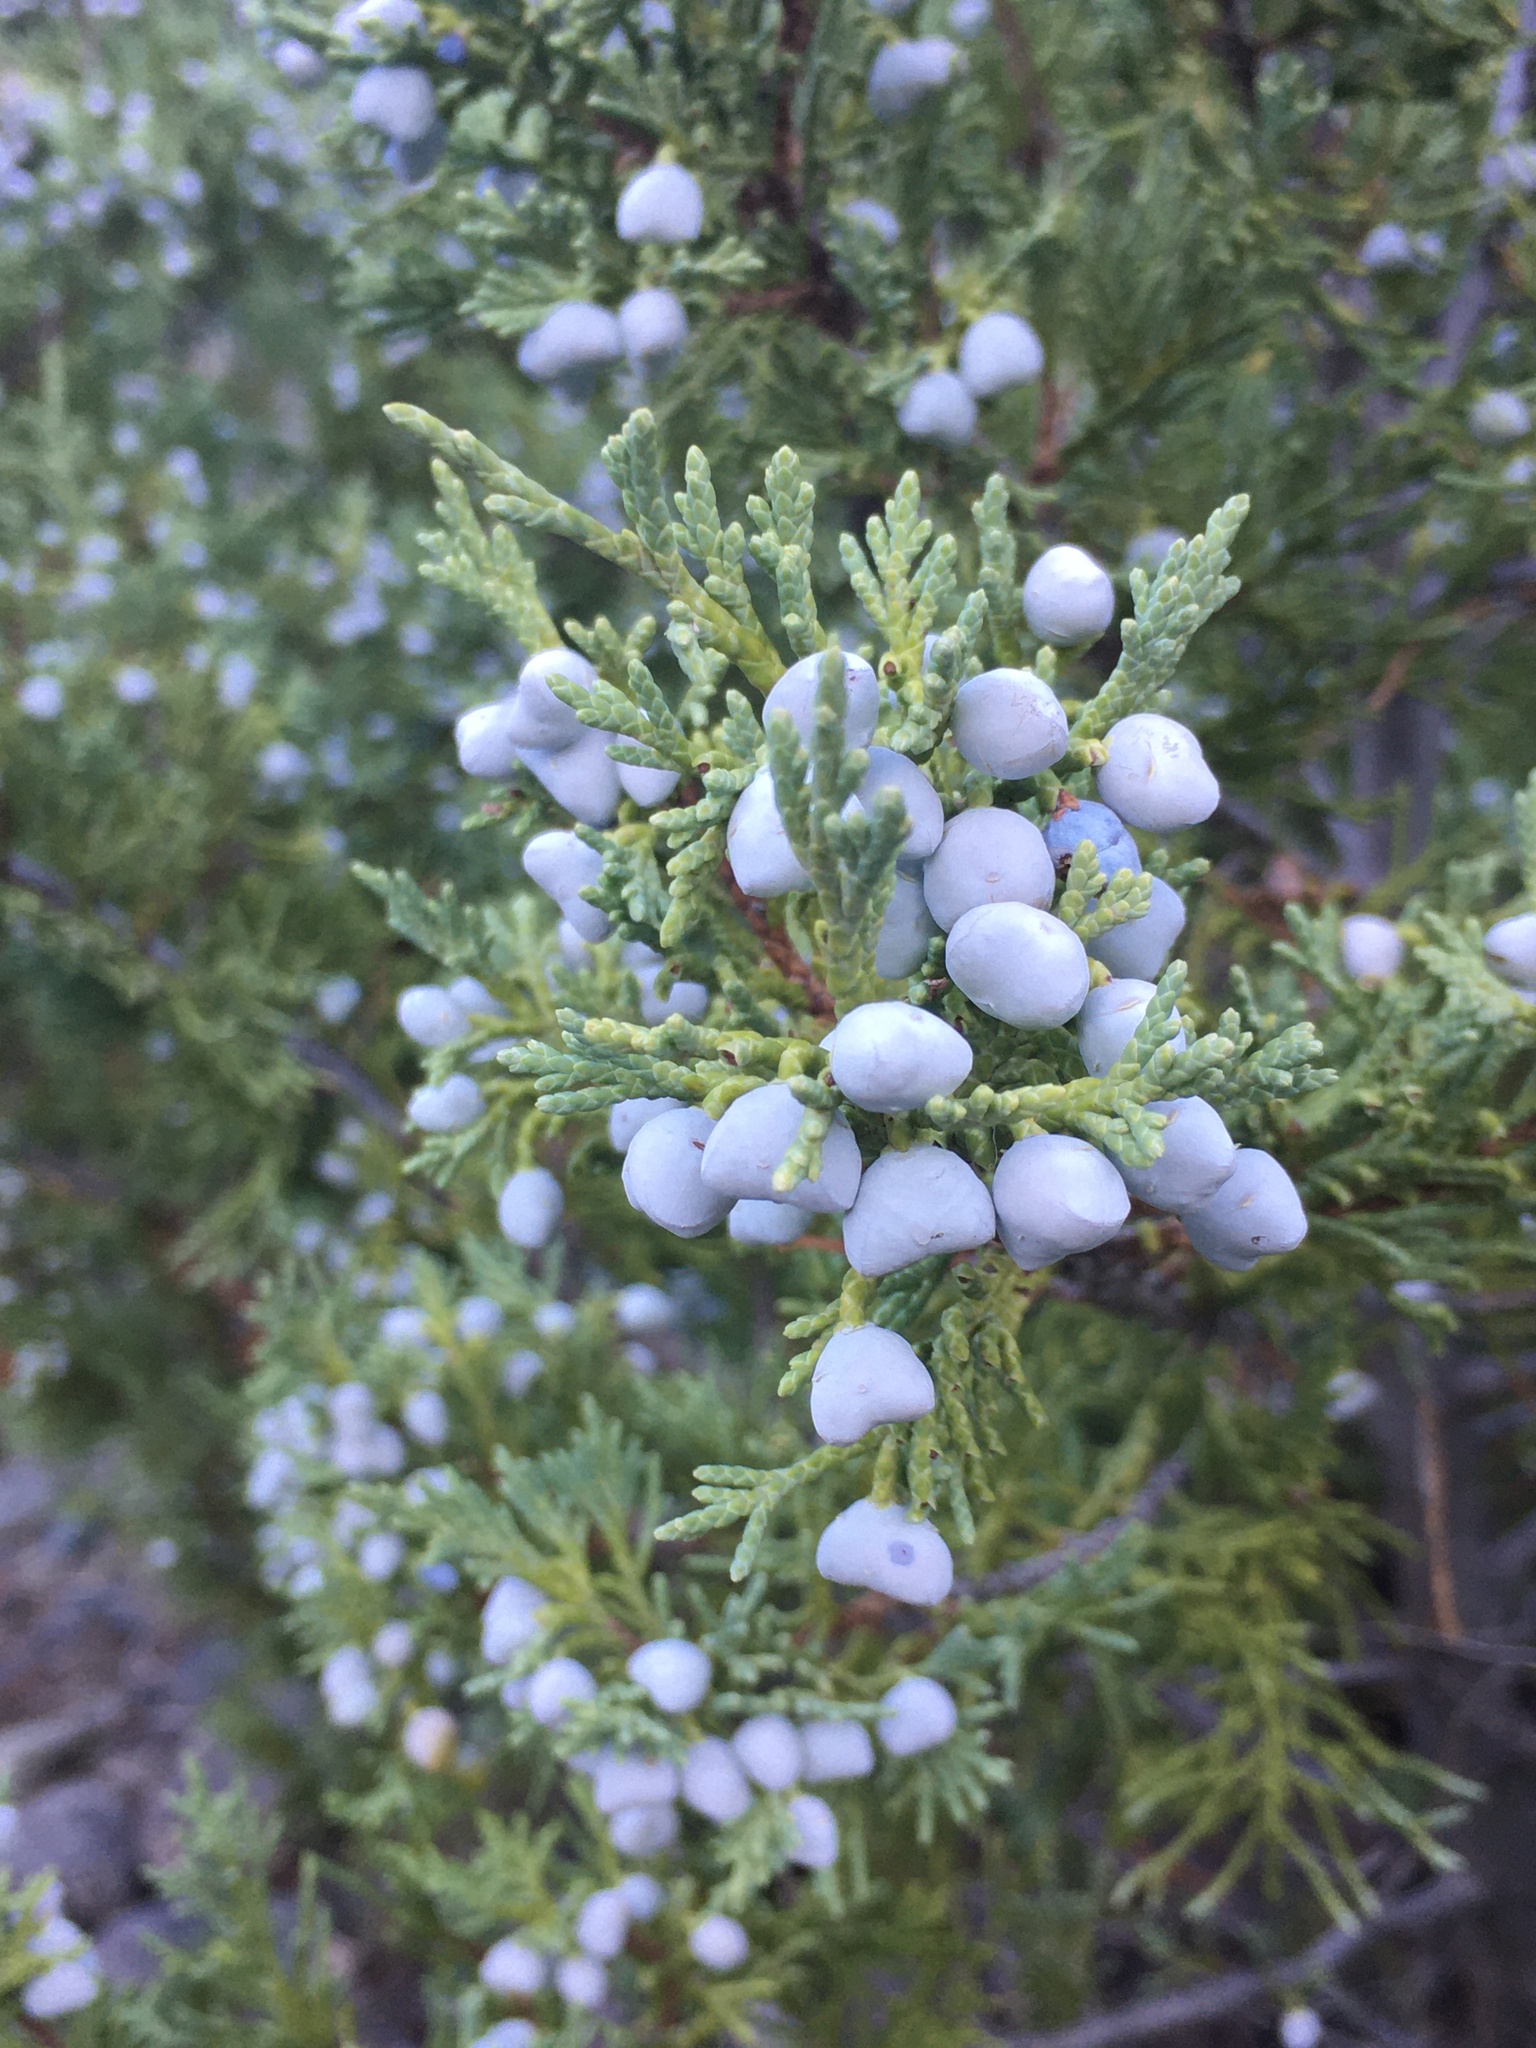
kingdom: Plantae
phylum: Tracheophyta
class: Pinopsida
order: Pinales
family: Cupressaceae
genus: Juniperus
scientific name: Juniperus scopulorum
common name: Rocky mountain juniper
